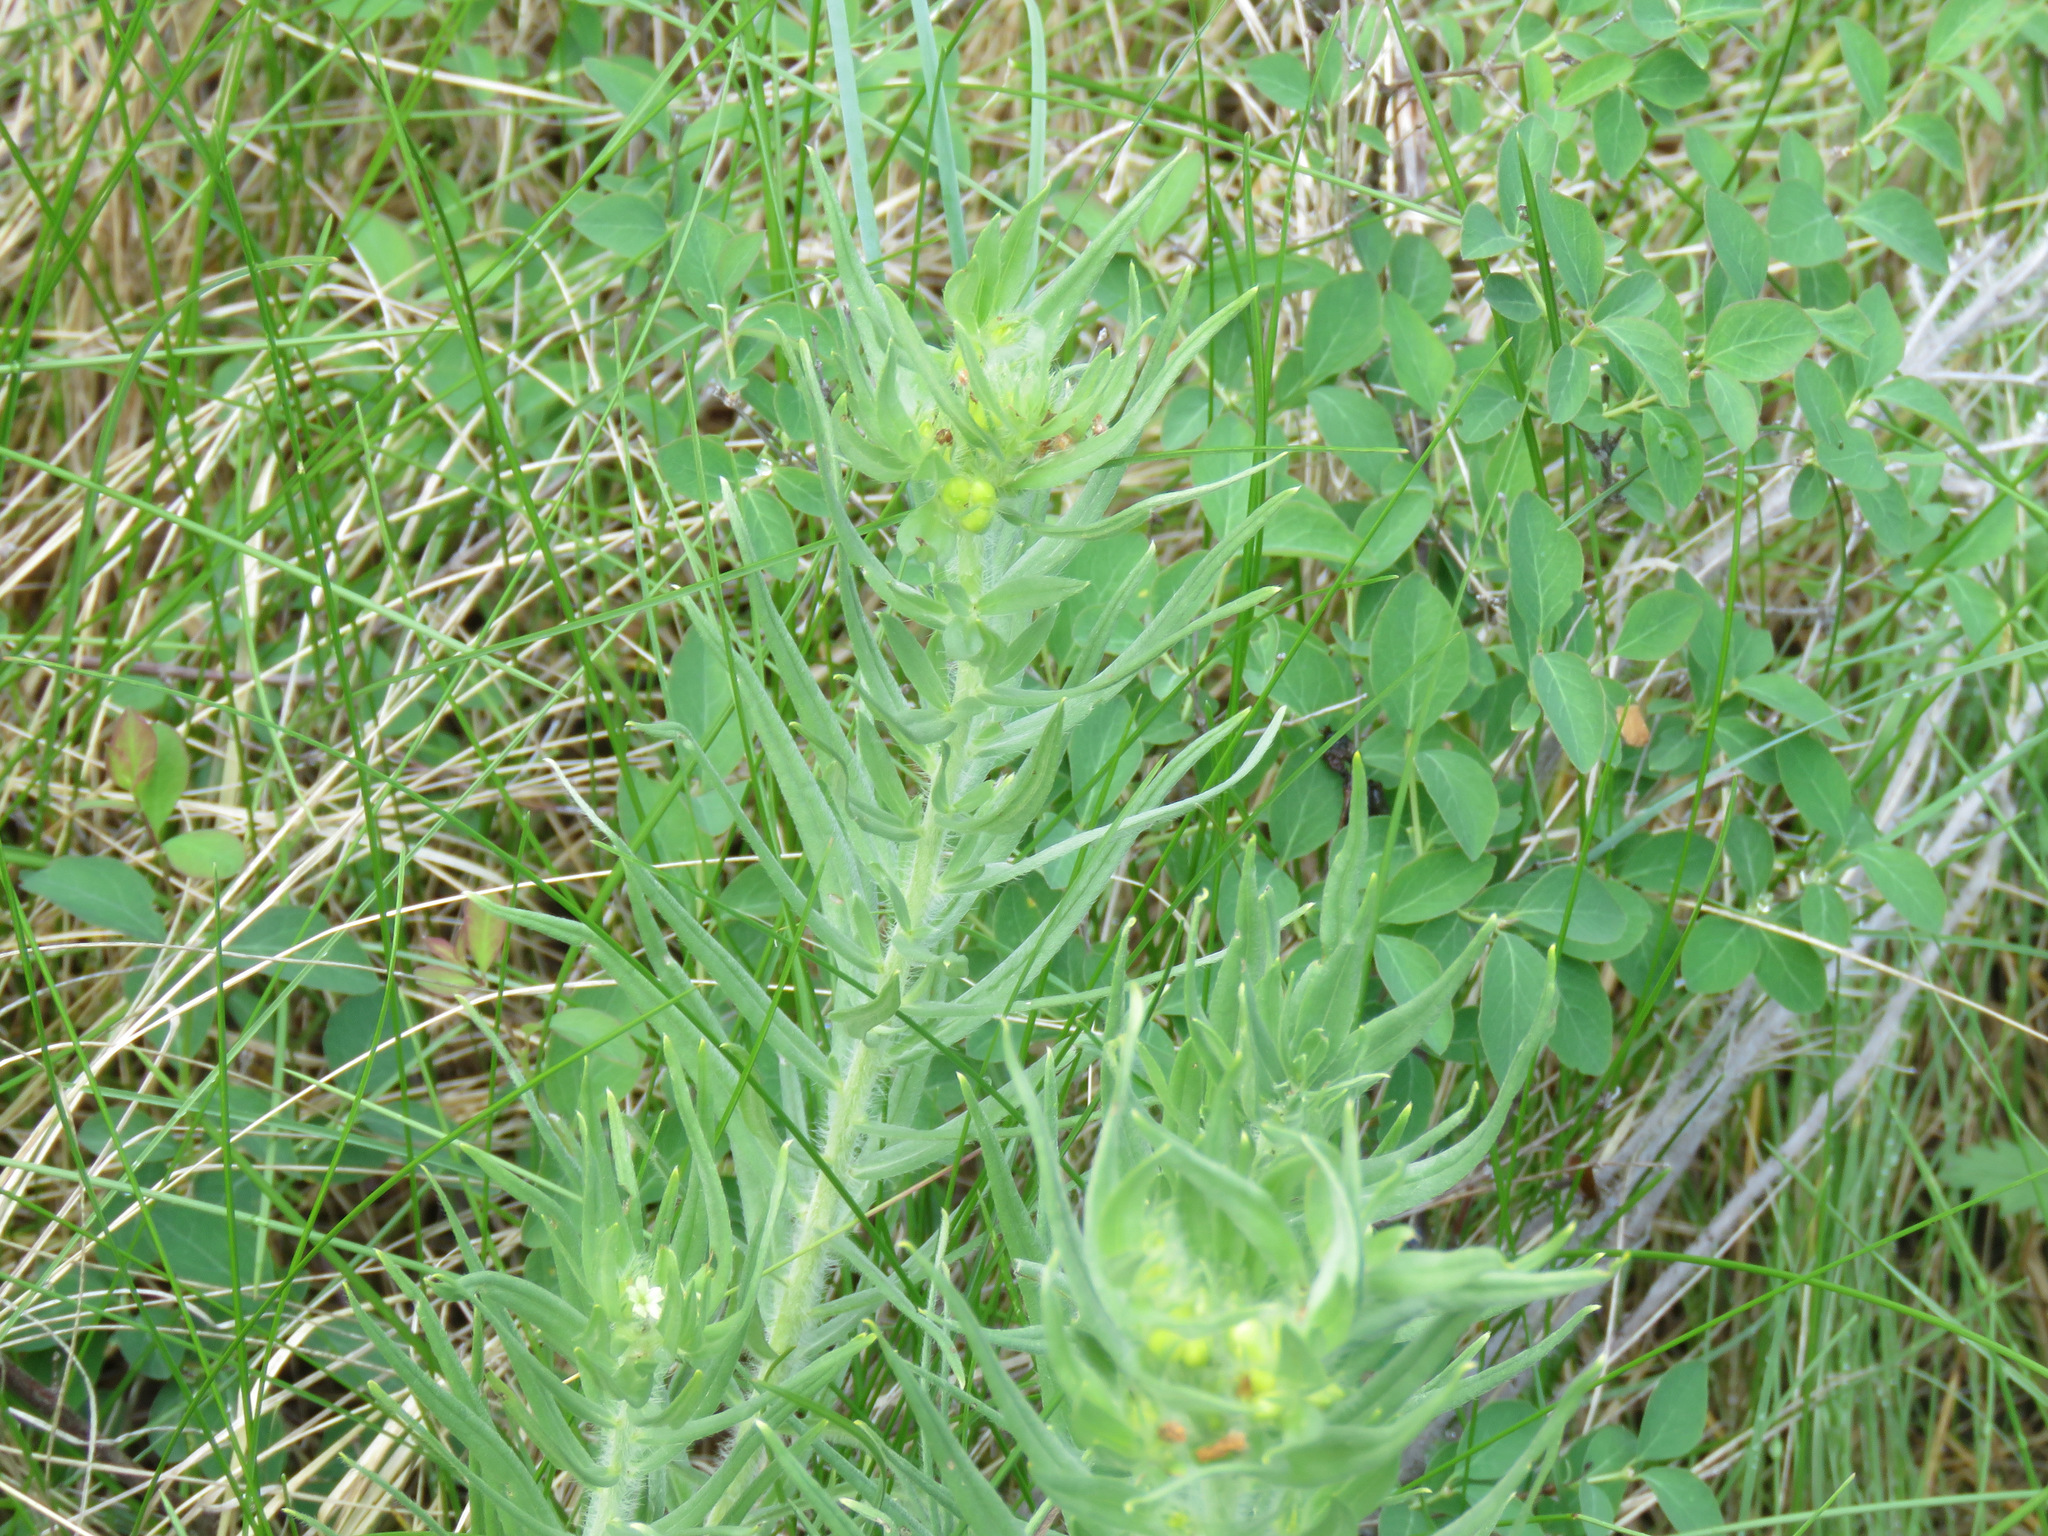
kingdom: Plantae
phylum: Tracheophyta
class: Magnoliopsida
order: Boraginales
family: Boraginaceae
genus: Lithospermum
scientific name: Lithospermum ruderale
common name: Western gromwell
